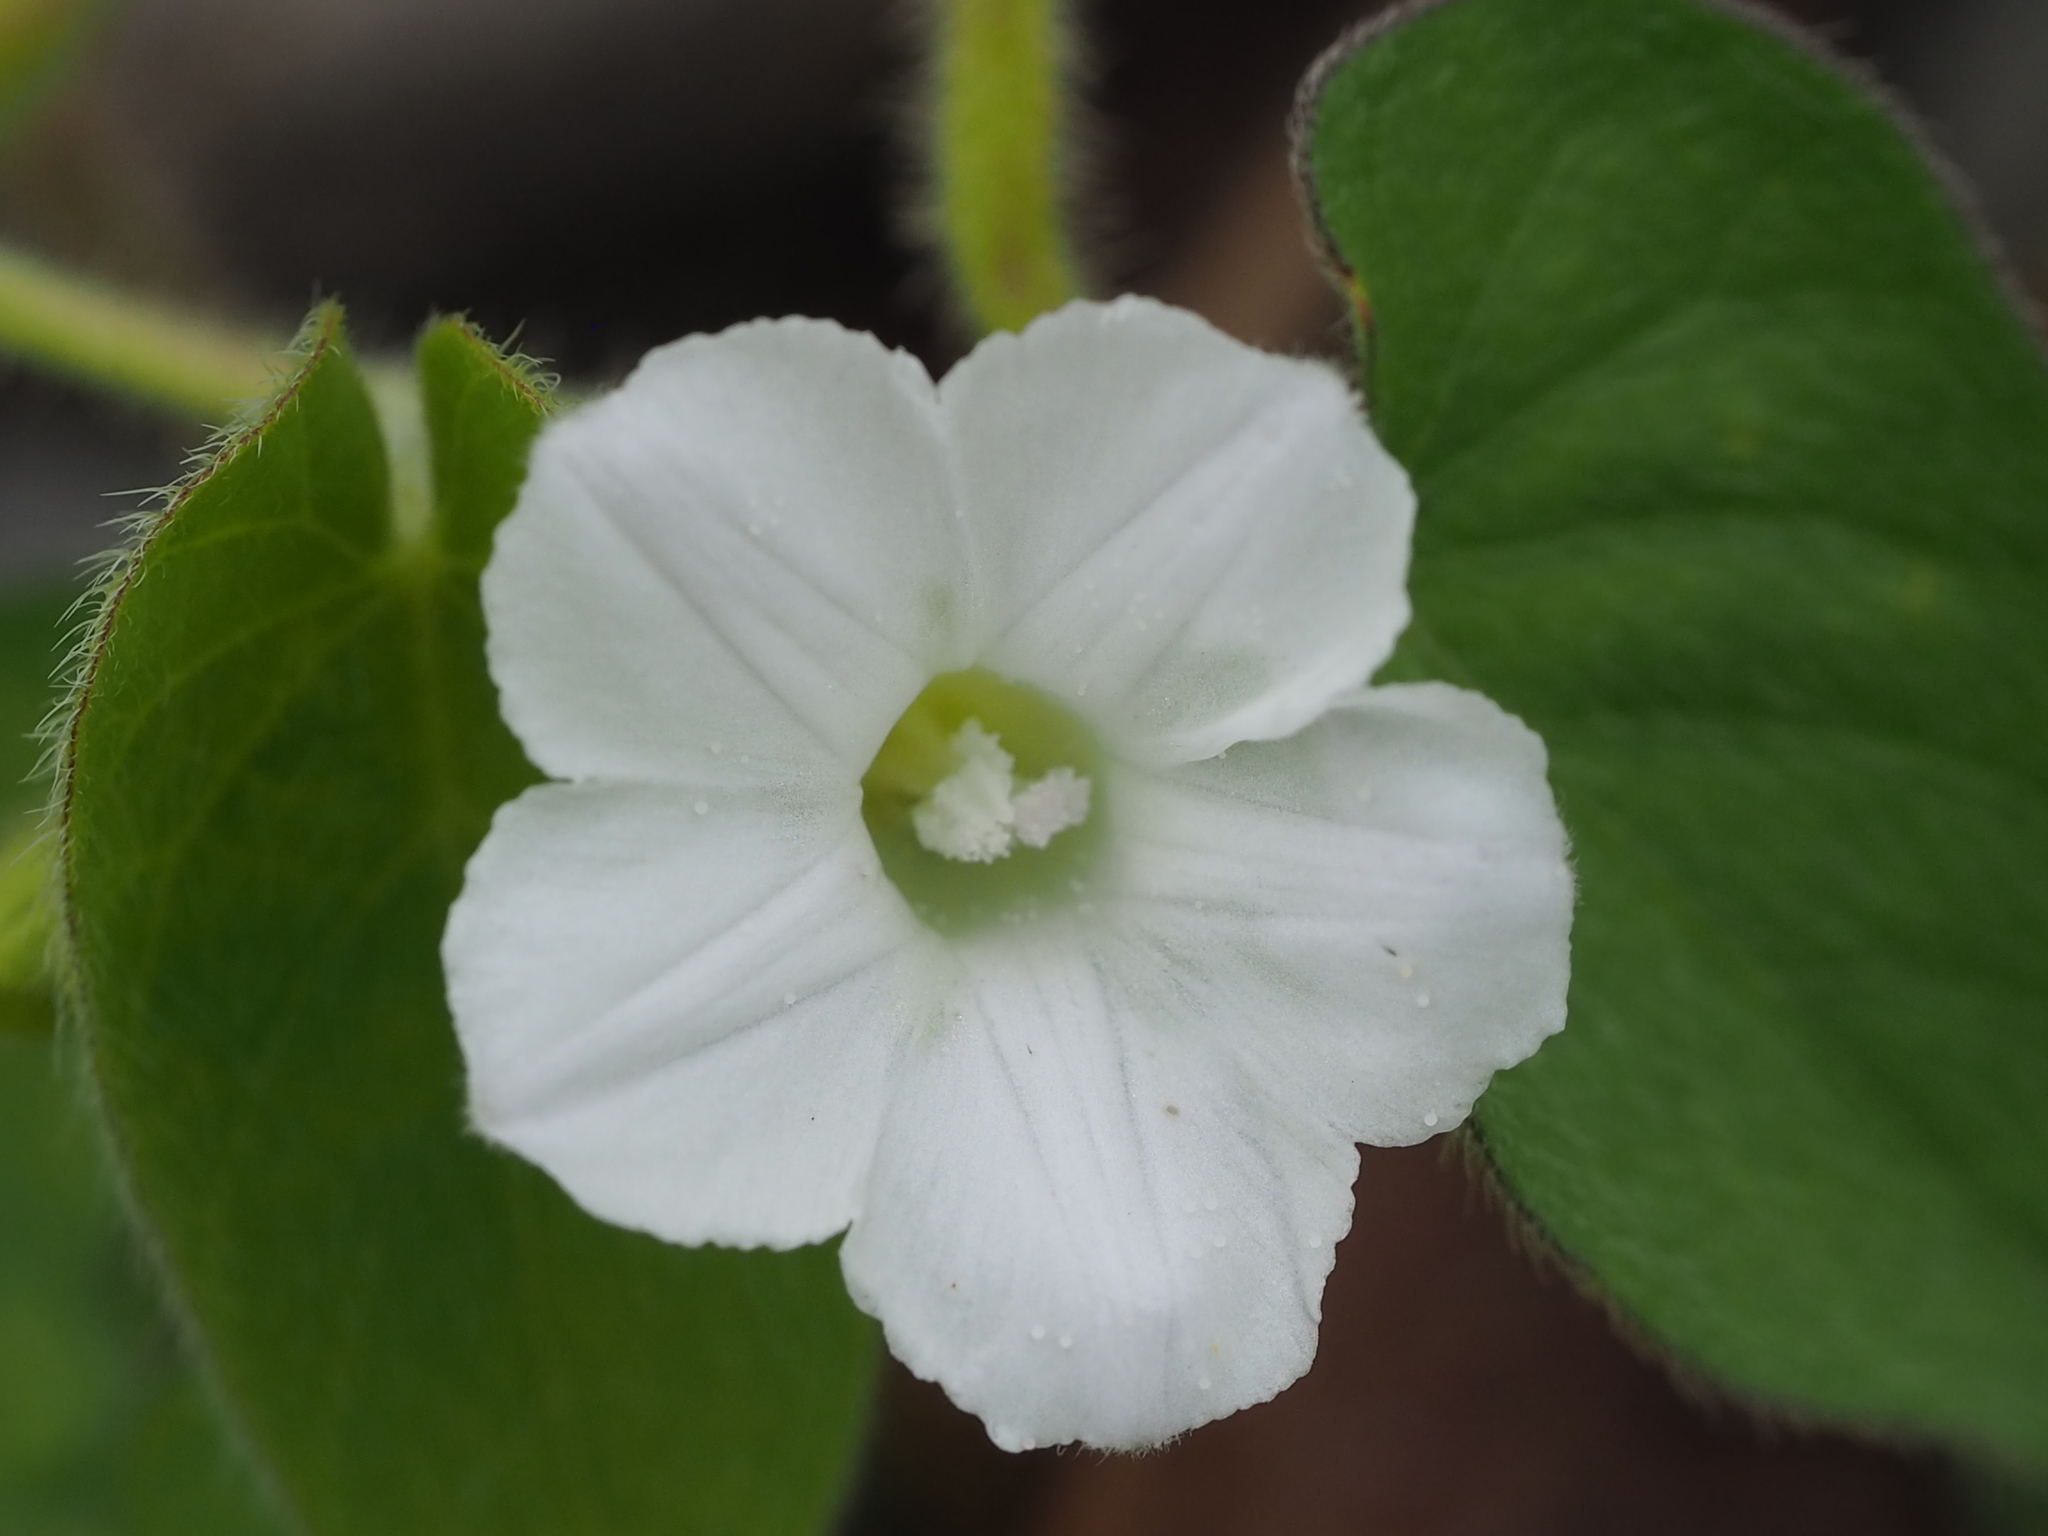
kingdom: Plantae
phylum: Tracheophyta
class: Magnoliopsida
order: Solanales
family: Convolvulaceae
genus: Ipomoea
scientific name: Ipomoea biflora
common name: Bellvine
